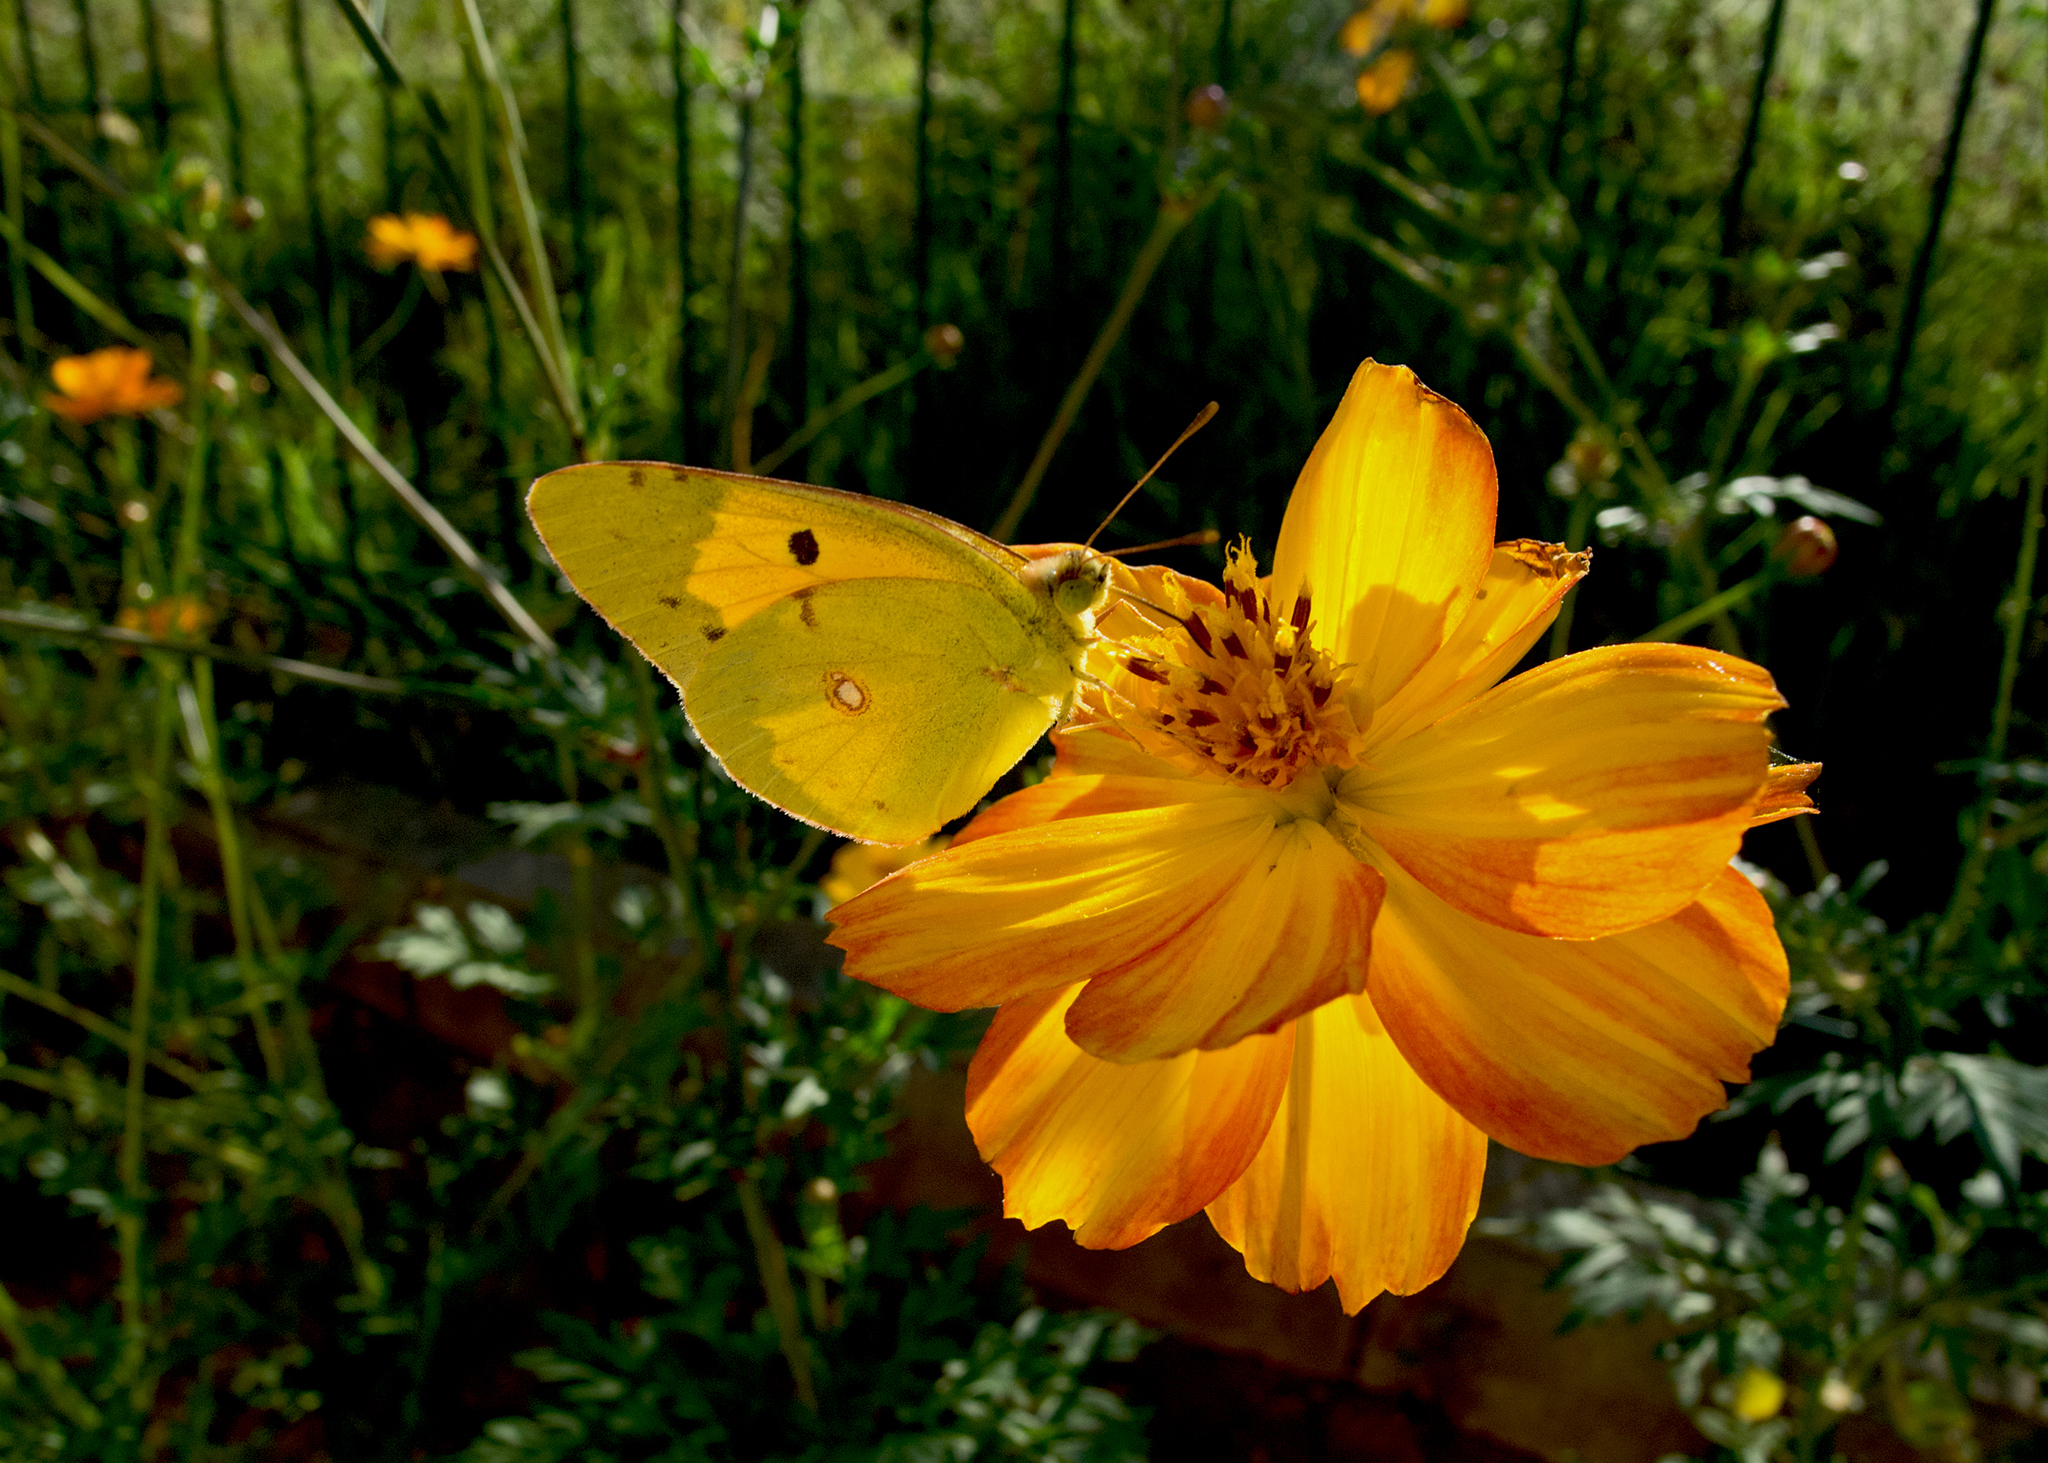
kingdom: Animalia
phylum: Arthropoda
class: Insecta
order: Lepidoptera
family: Pieridae
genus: Colias
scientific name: Colias croceus
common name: Clouded yellow
